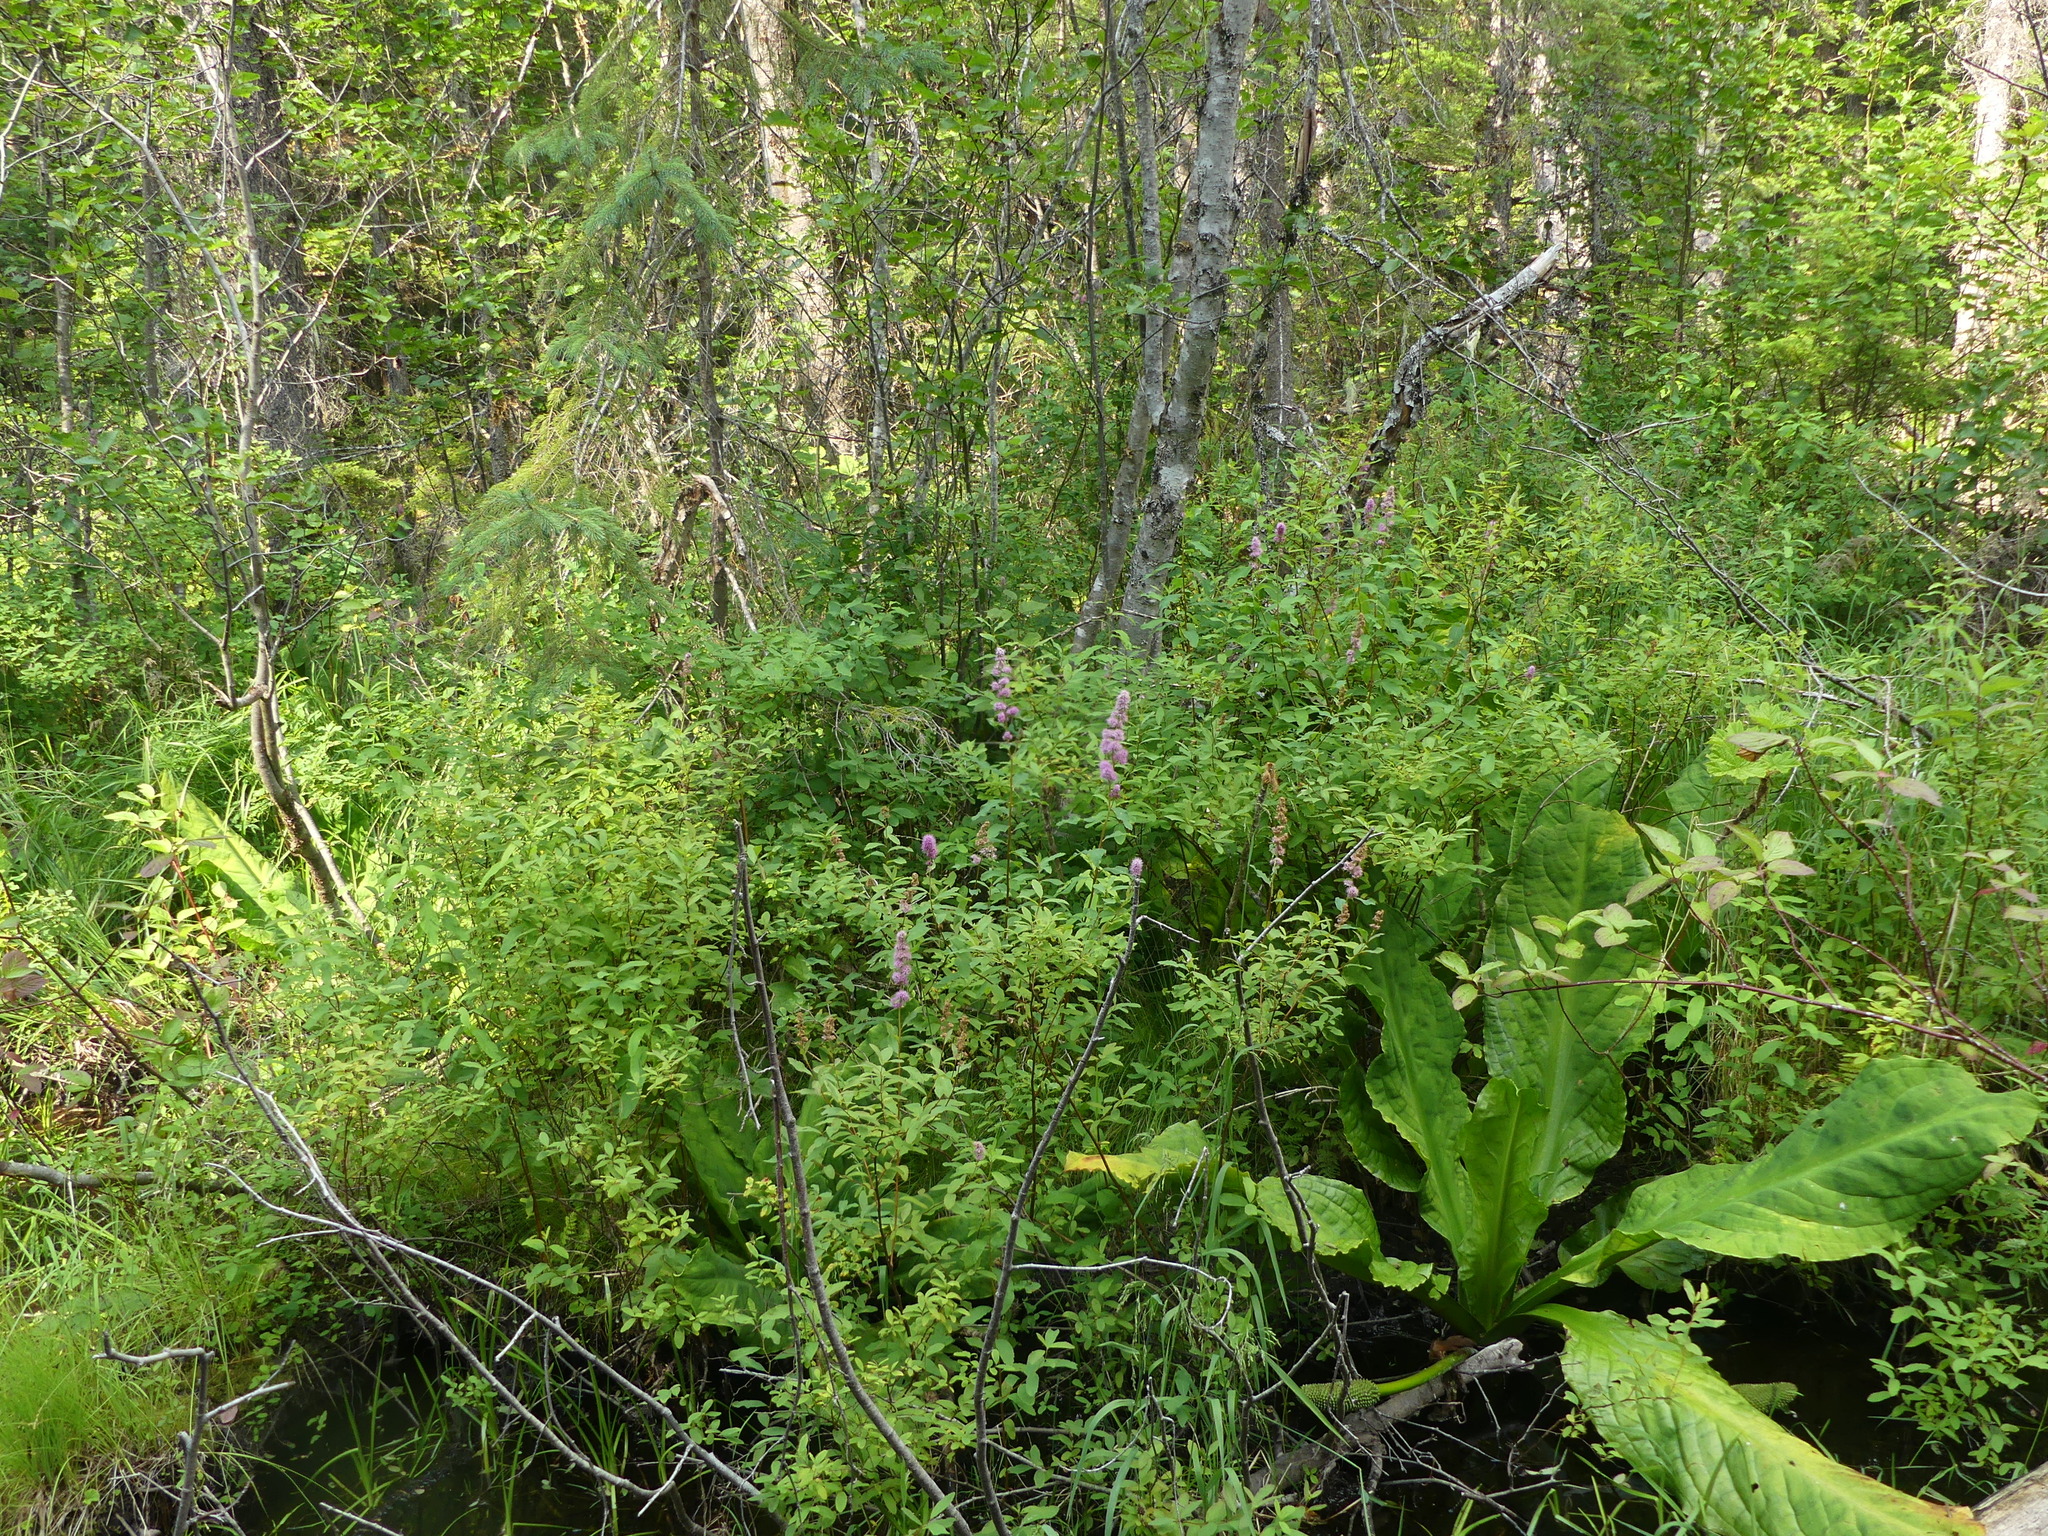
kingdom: Plantae
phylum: Tracheophyta
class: Magnoliopsida
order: Rosales
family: Rosaceae
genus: Spiraea
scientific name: Spiraea douglasii
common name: Steeplebush
